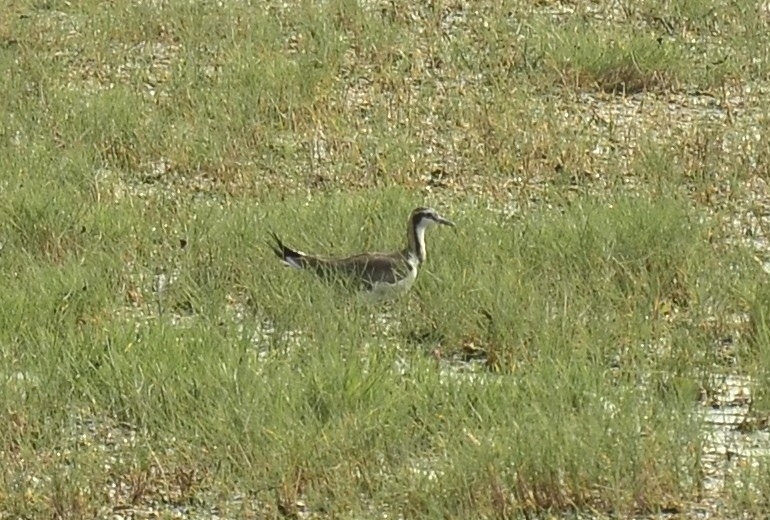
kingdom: Animalia
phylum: Chordata
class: Aves
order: Charadriiformes
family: Jacanidae
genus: Hydrophasianus
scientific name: Hydrophasianus chirurgus
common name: Pheasant-tailed jacana
